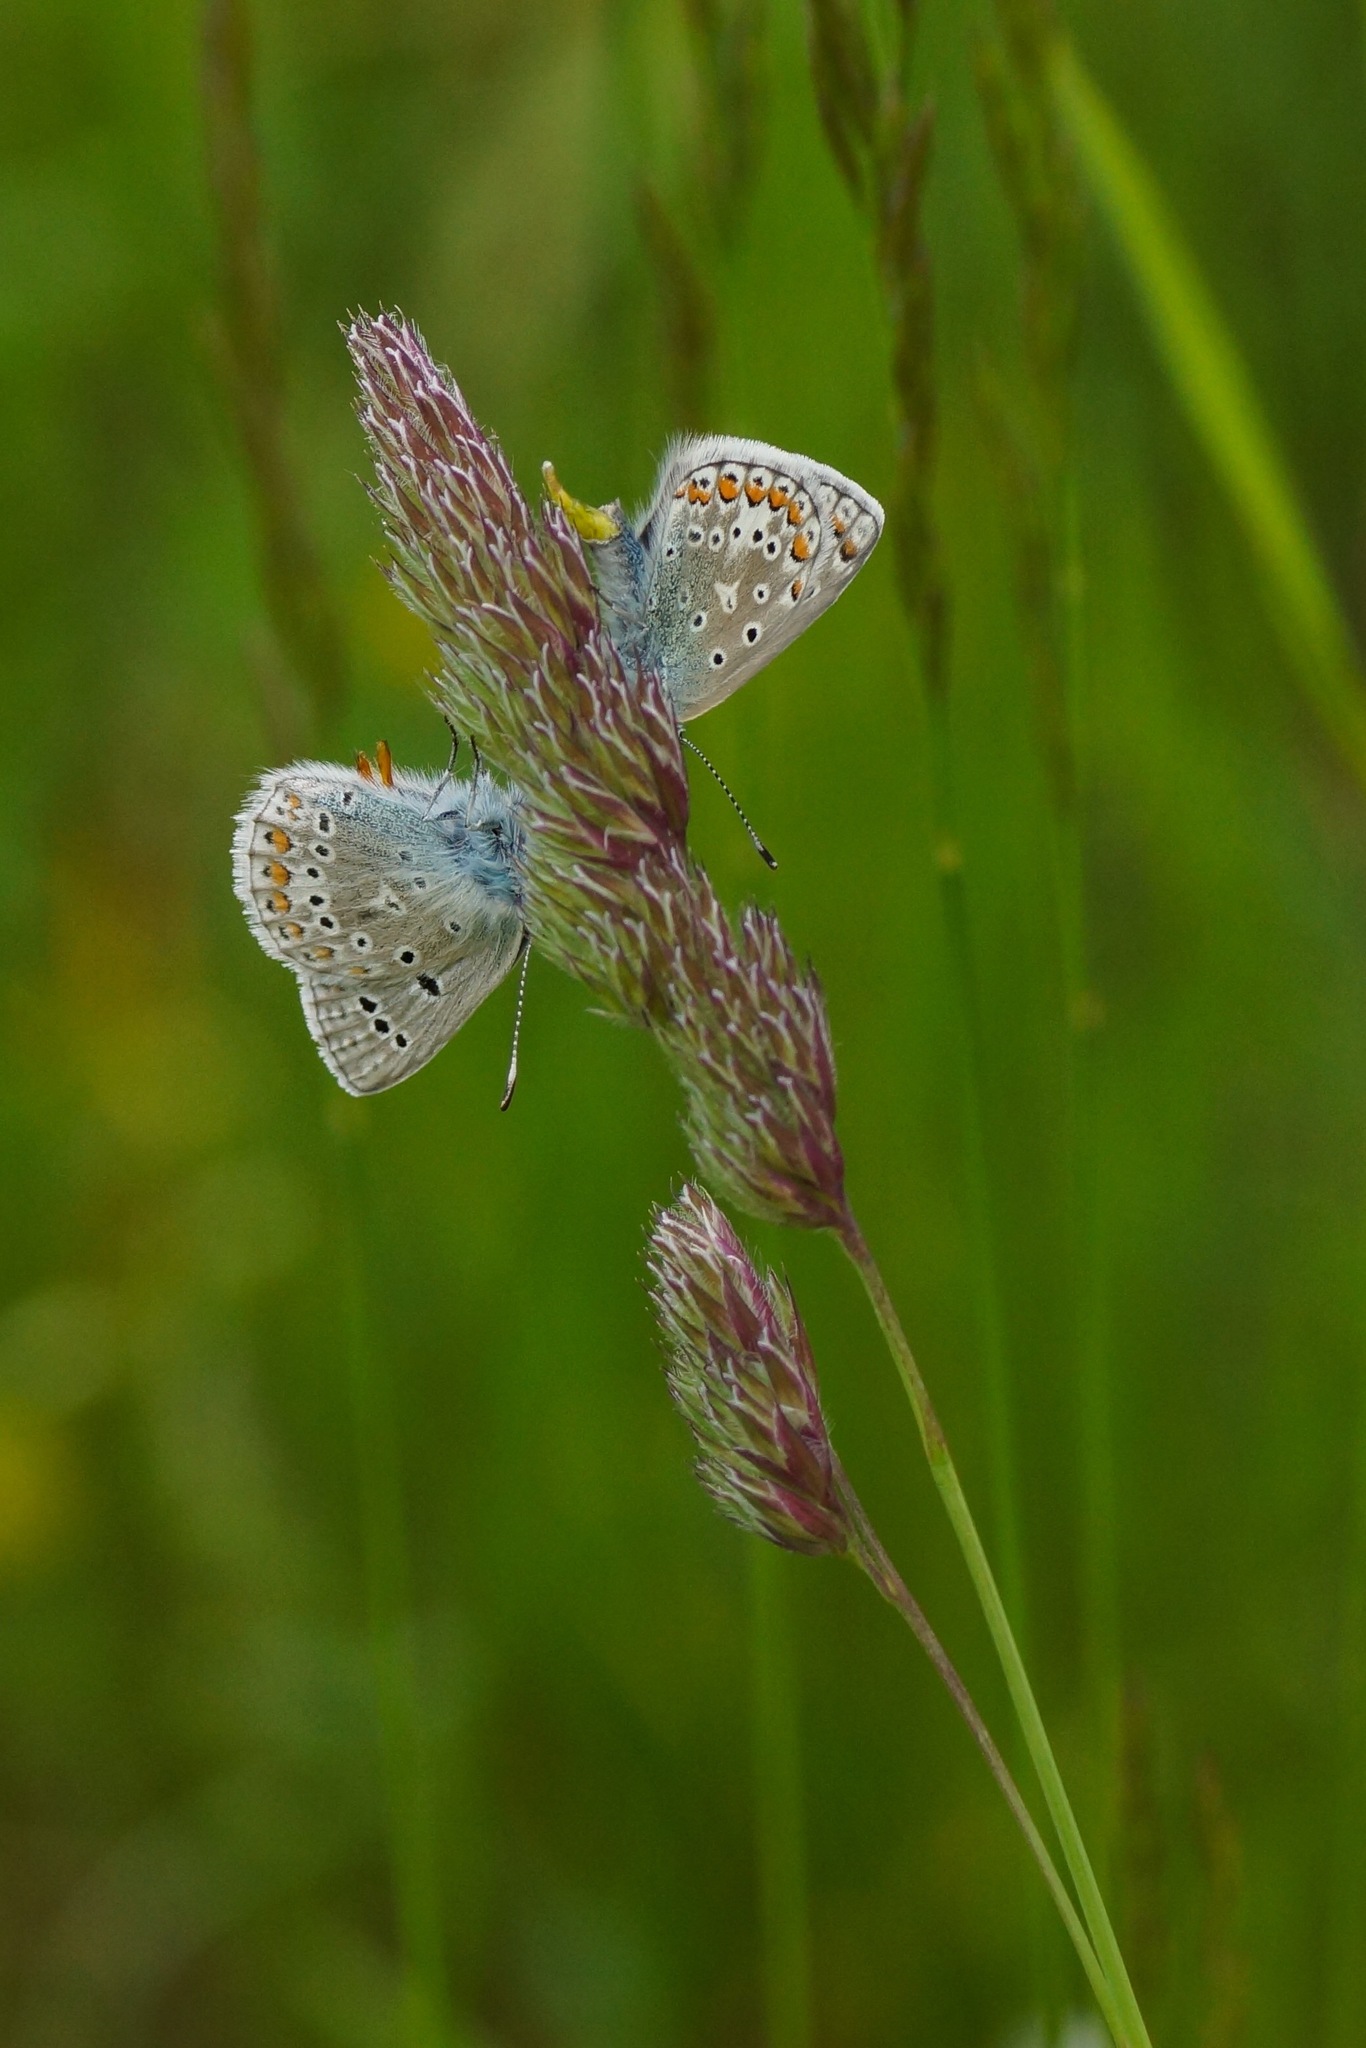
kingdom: Animalia
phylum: Arthropoda
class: Insecta
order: Lepidoptera
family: Lycaenidae
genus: Polyommatus
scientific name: Polyommatus icarus
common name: Common blue
